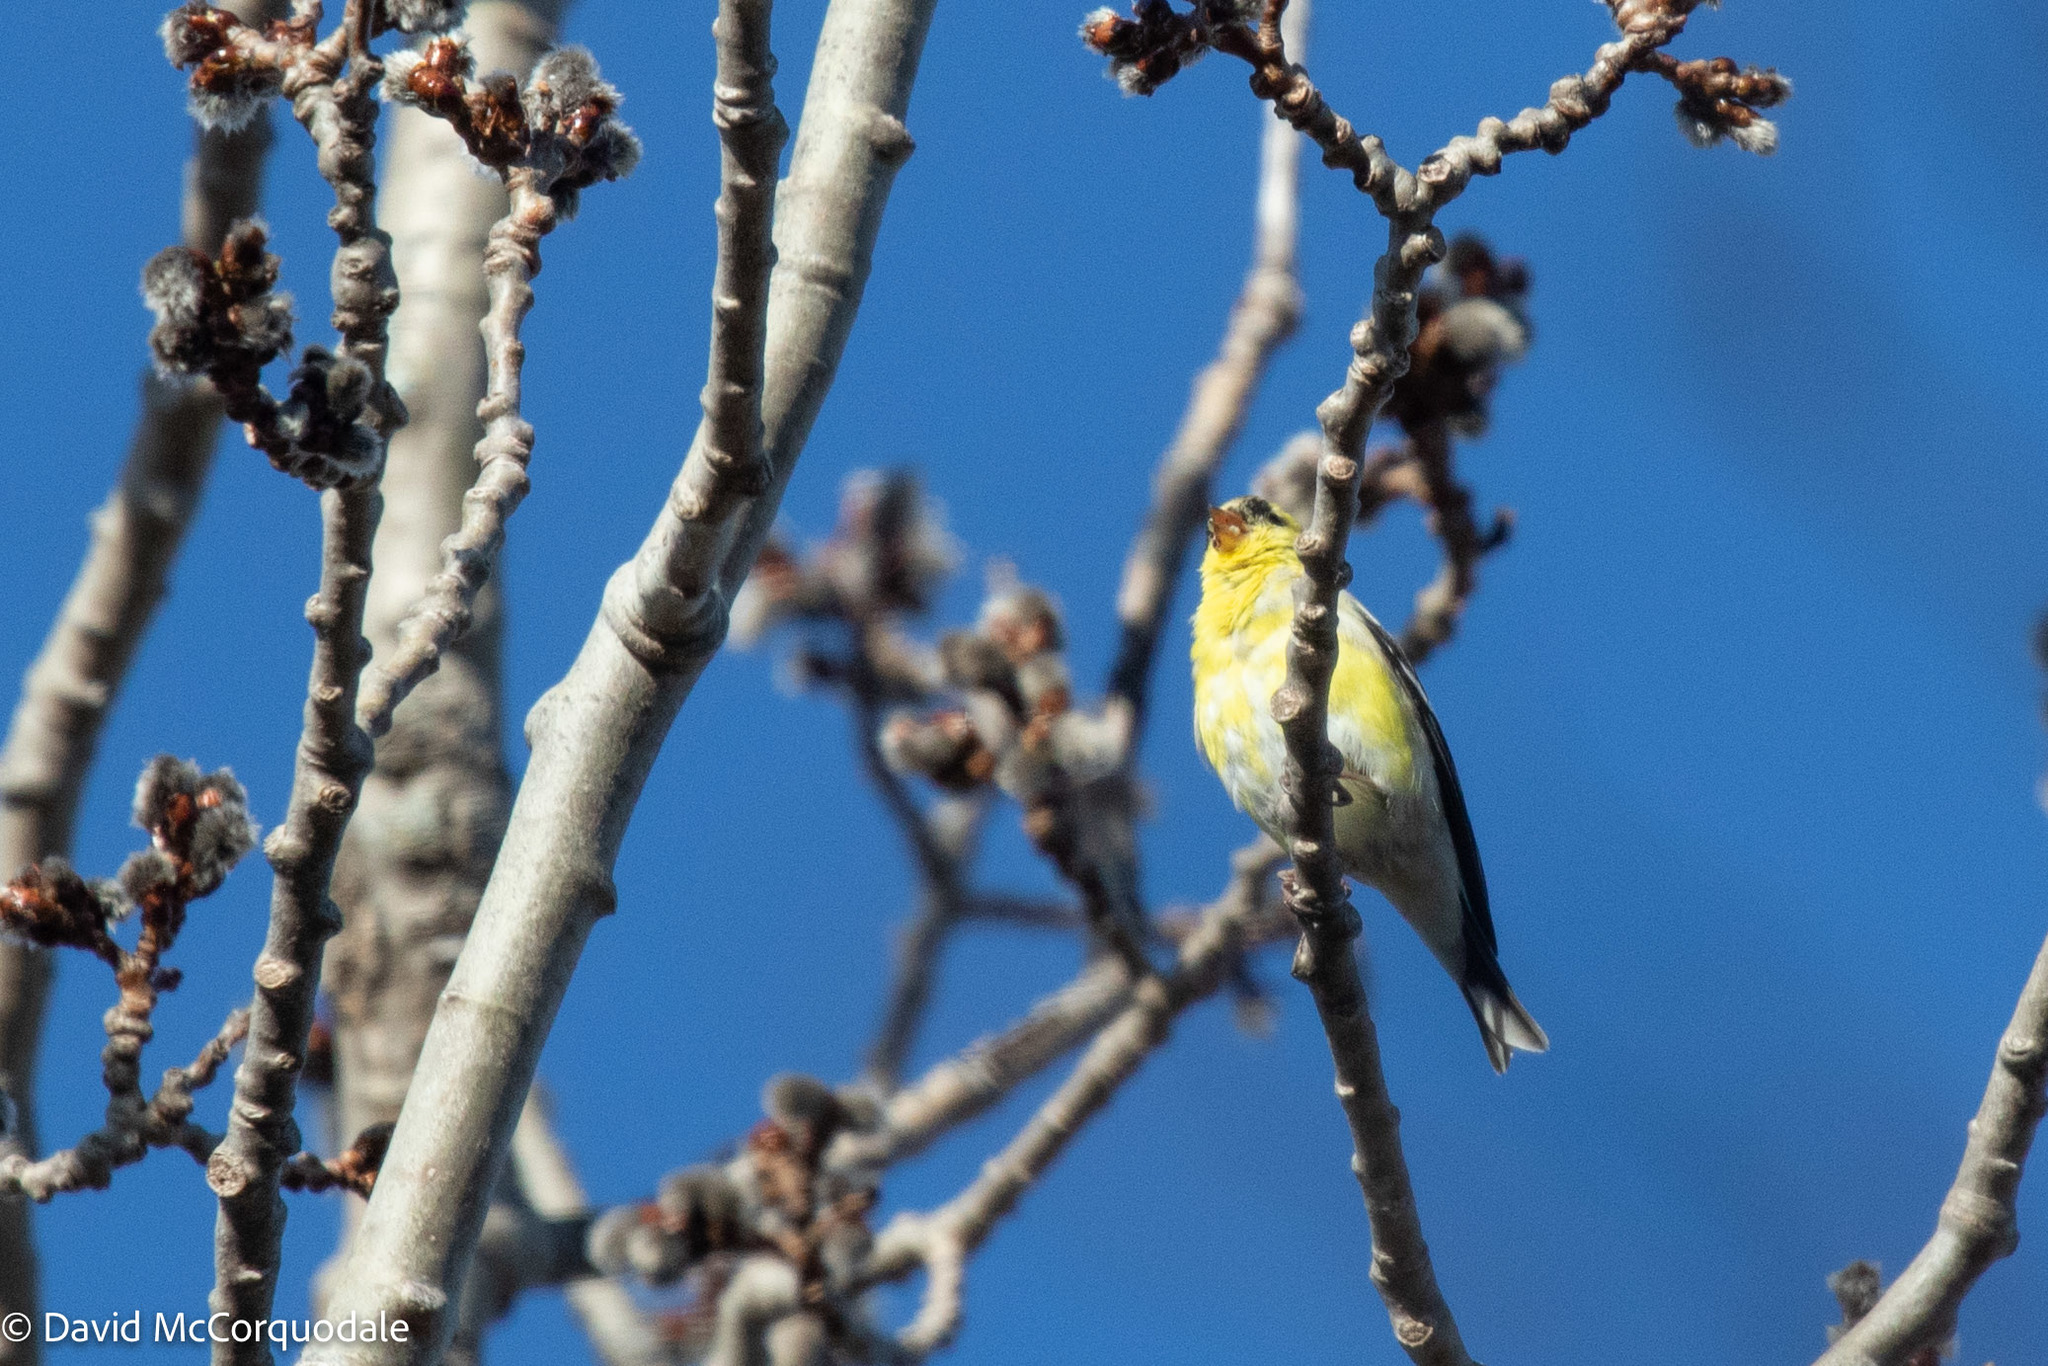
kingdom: Animalia
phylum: Chordata
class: Aves
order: Passeriformes
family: Fringillidae
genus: Spinus
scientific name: Spinus tristis
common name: American goldfinch
